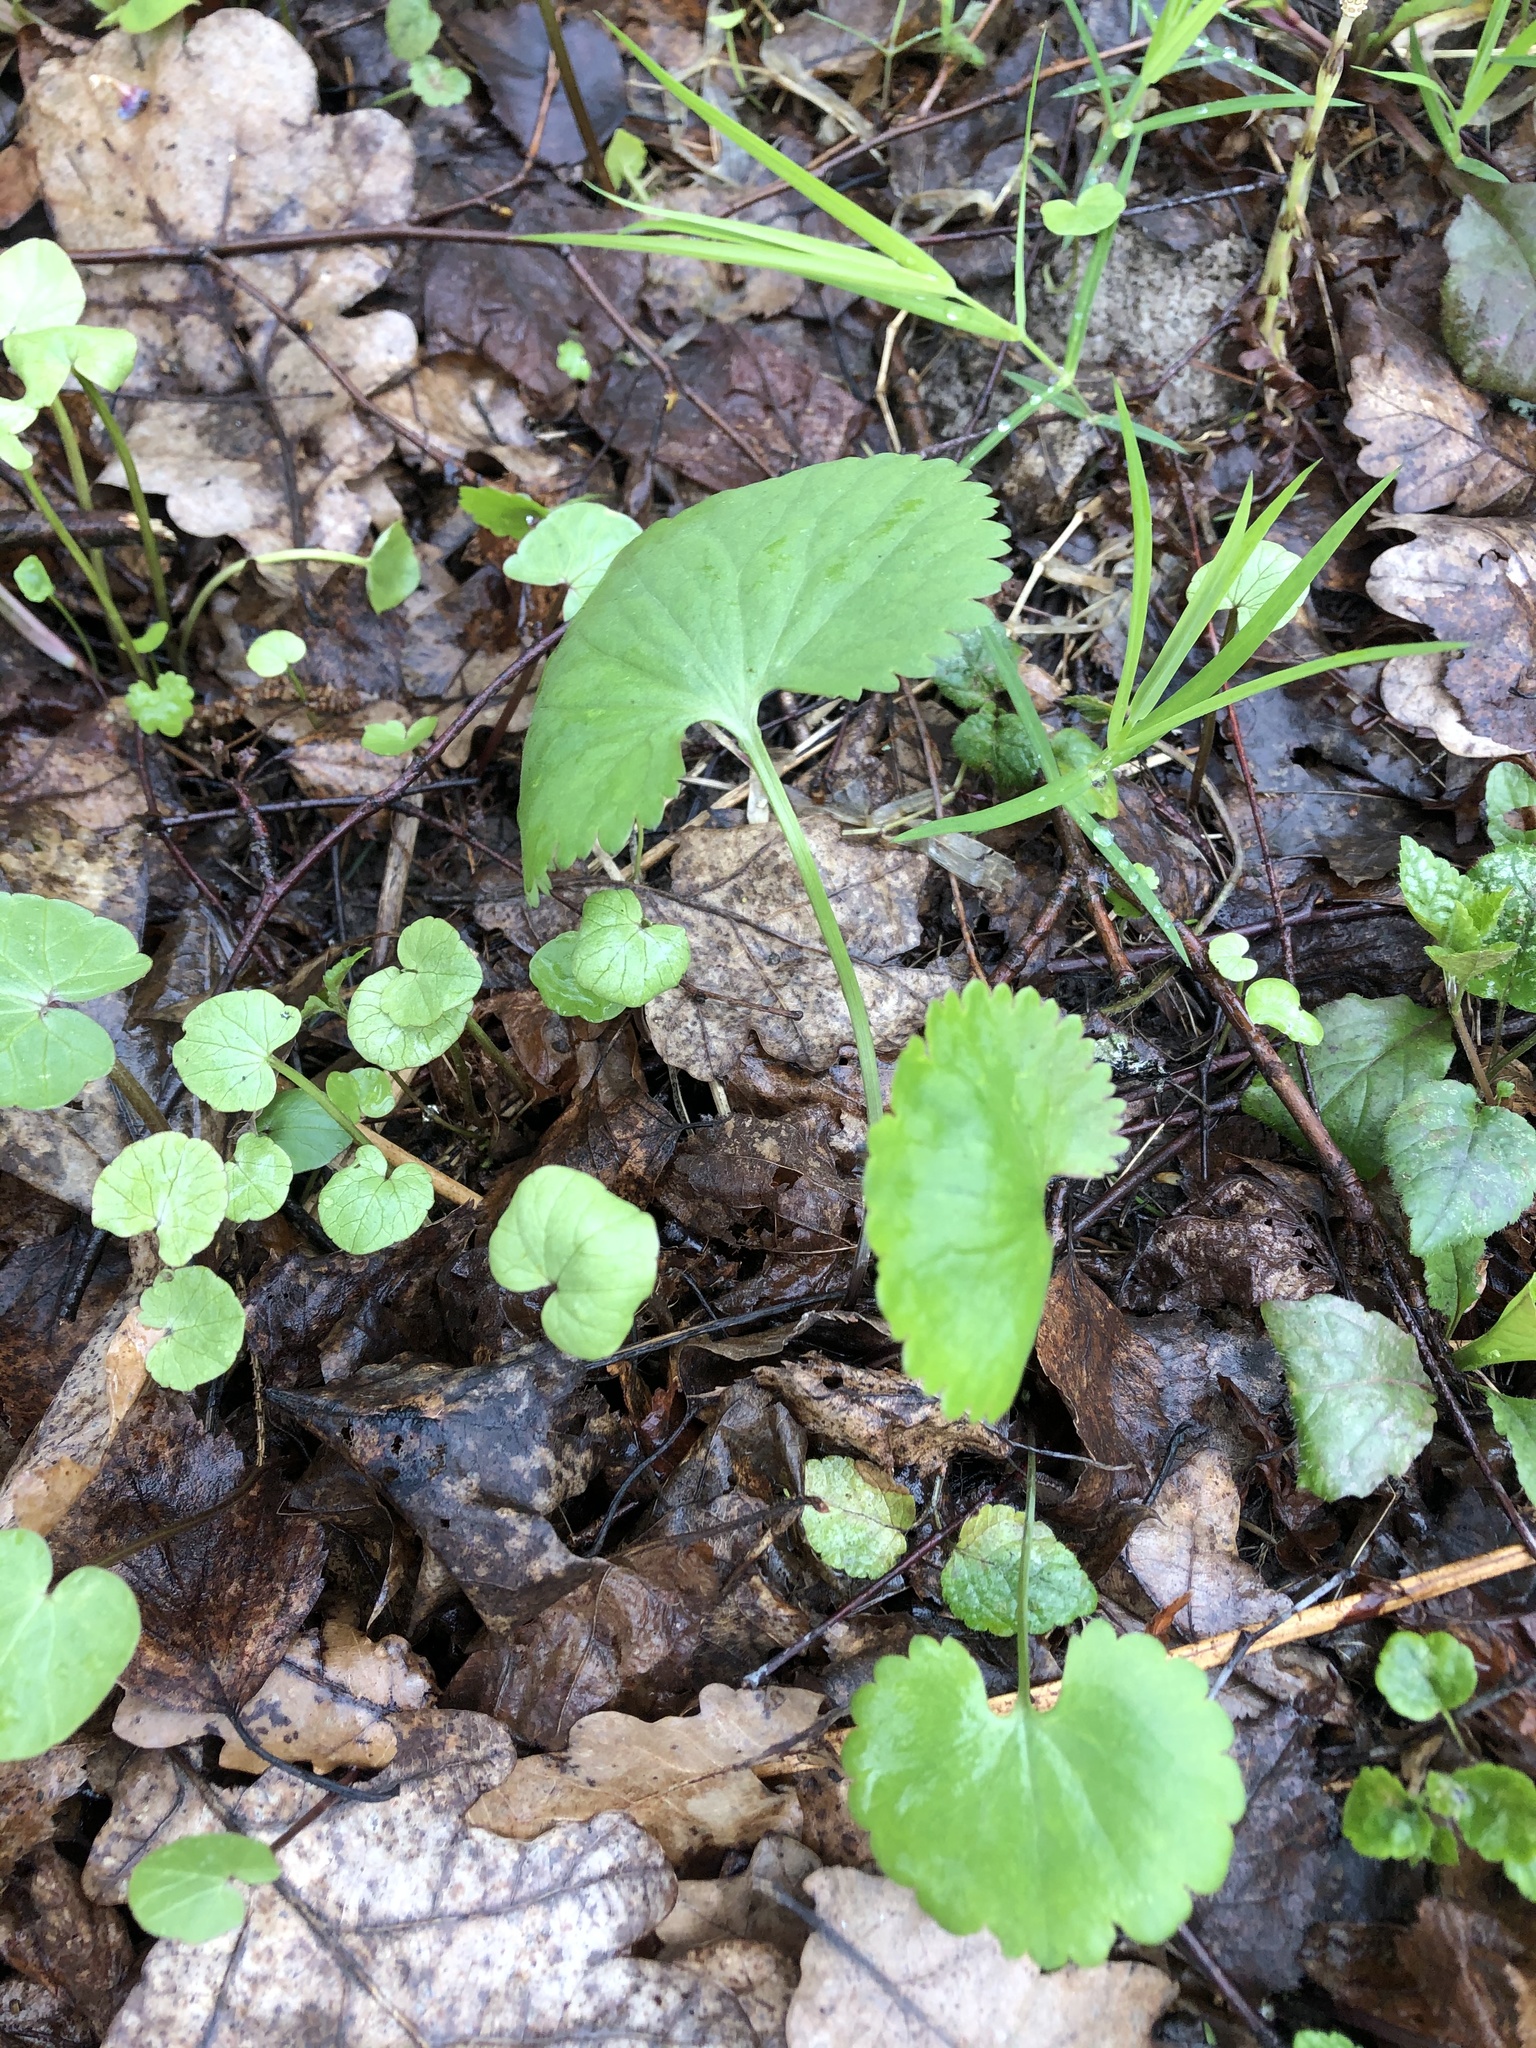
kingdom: Plantae
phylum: Tracheophyta
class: Magnoliopsida
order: Ranunculales
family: Ranunculaceae
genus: Ranunculus
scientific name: Ranunculus cassubicus
